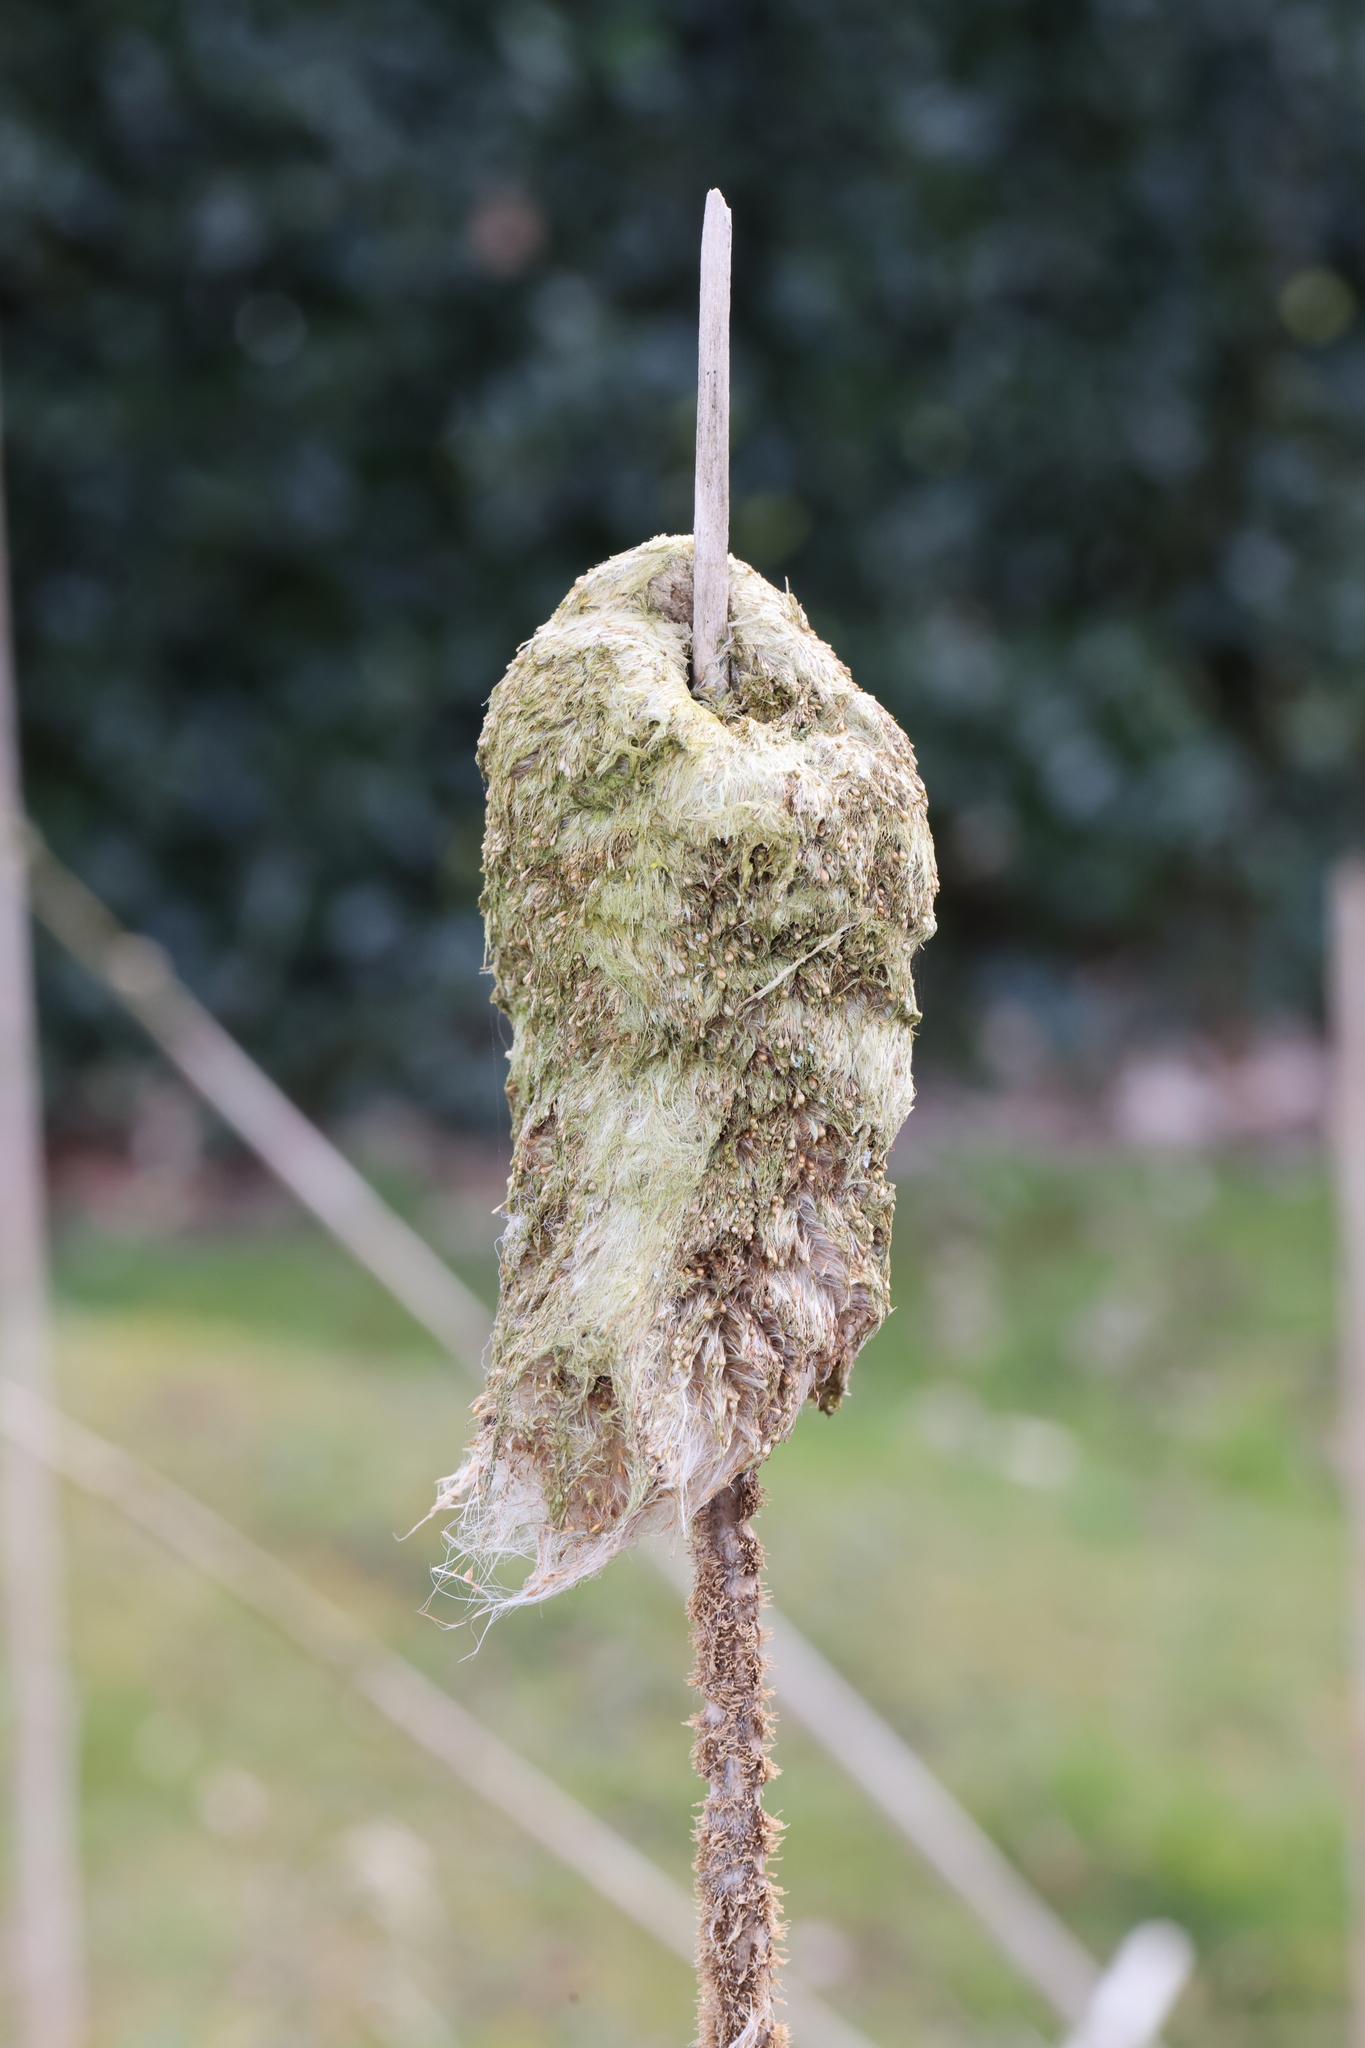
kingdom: Plantae
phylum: Tracheophyta
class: Liliopsida
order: Poales
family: Typhaceae
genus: Typha
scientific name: Typha latifolia
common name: Broadleaf cattail
